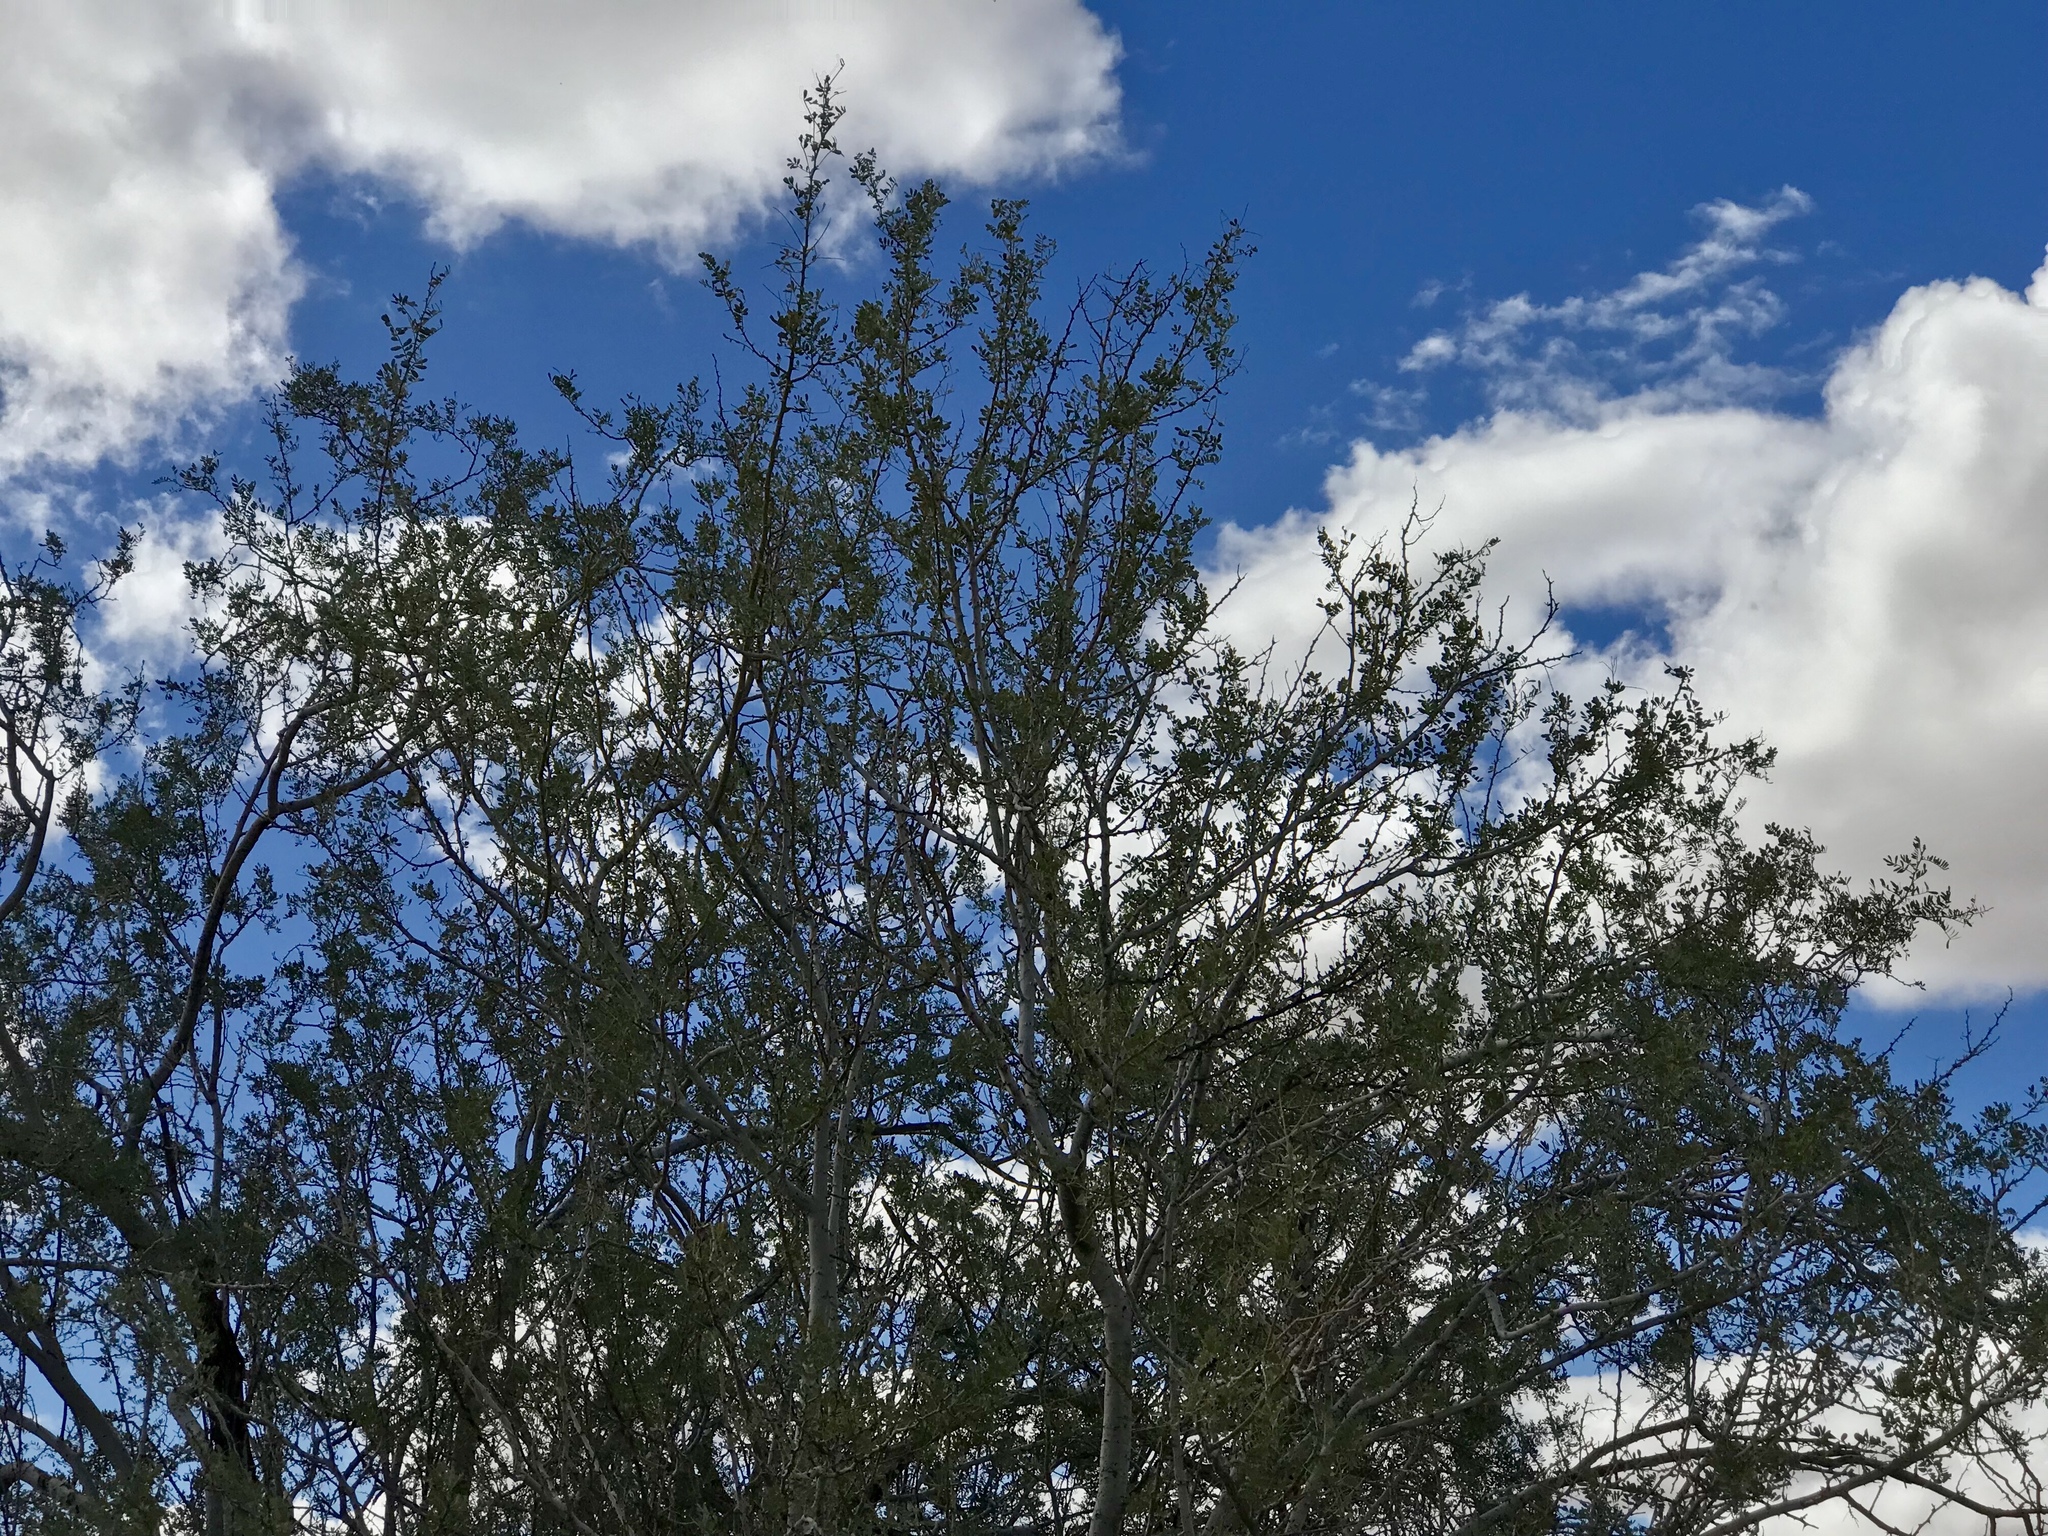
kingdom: Plantae
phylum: Tracheophyta
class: Magnoliopsida
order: Fabales
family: Fabaceae
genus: Olneya
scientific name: Olneya tesota
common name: Desert ironwood
